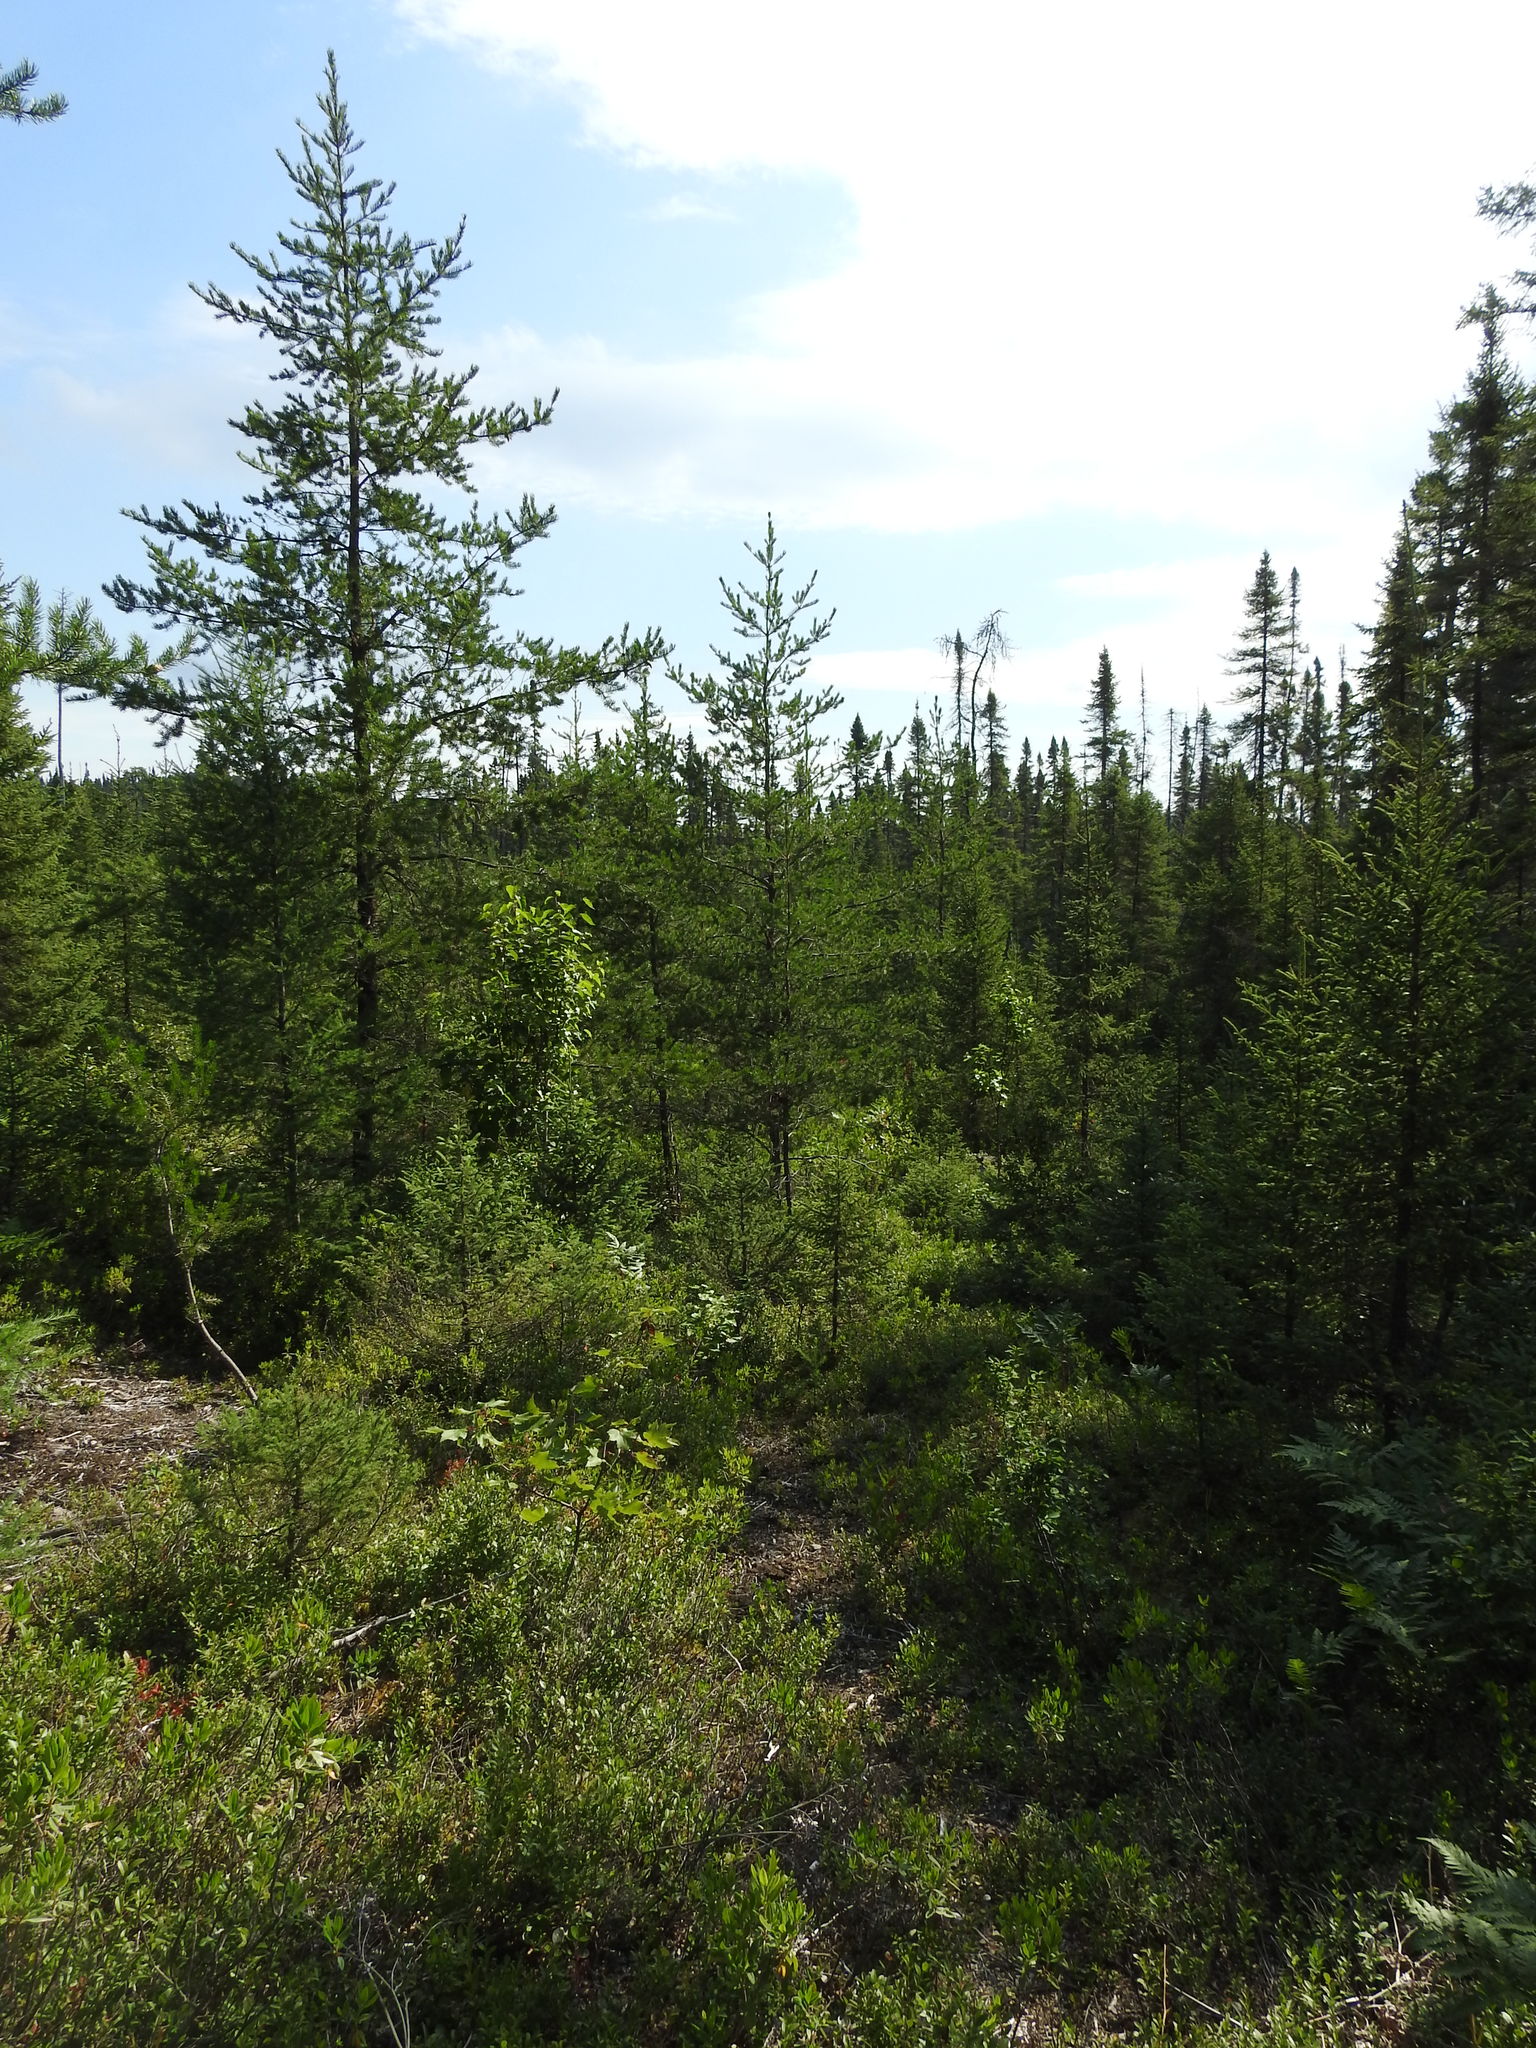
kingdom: Plantae
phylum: Tracheophyta
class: Pinopsida
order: Pinales
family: Pinaceae
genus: Pinus
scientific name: Pinus banksiana
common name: Jack pine
